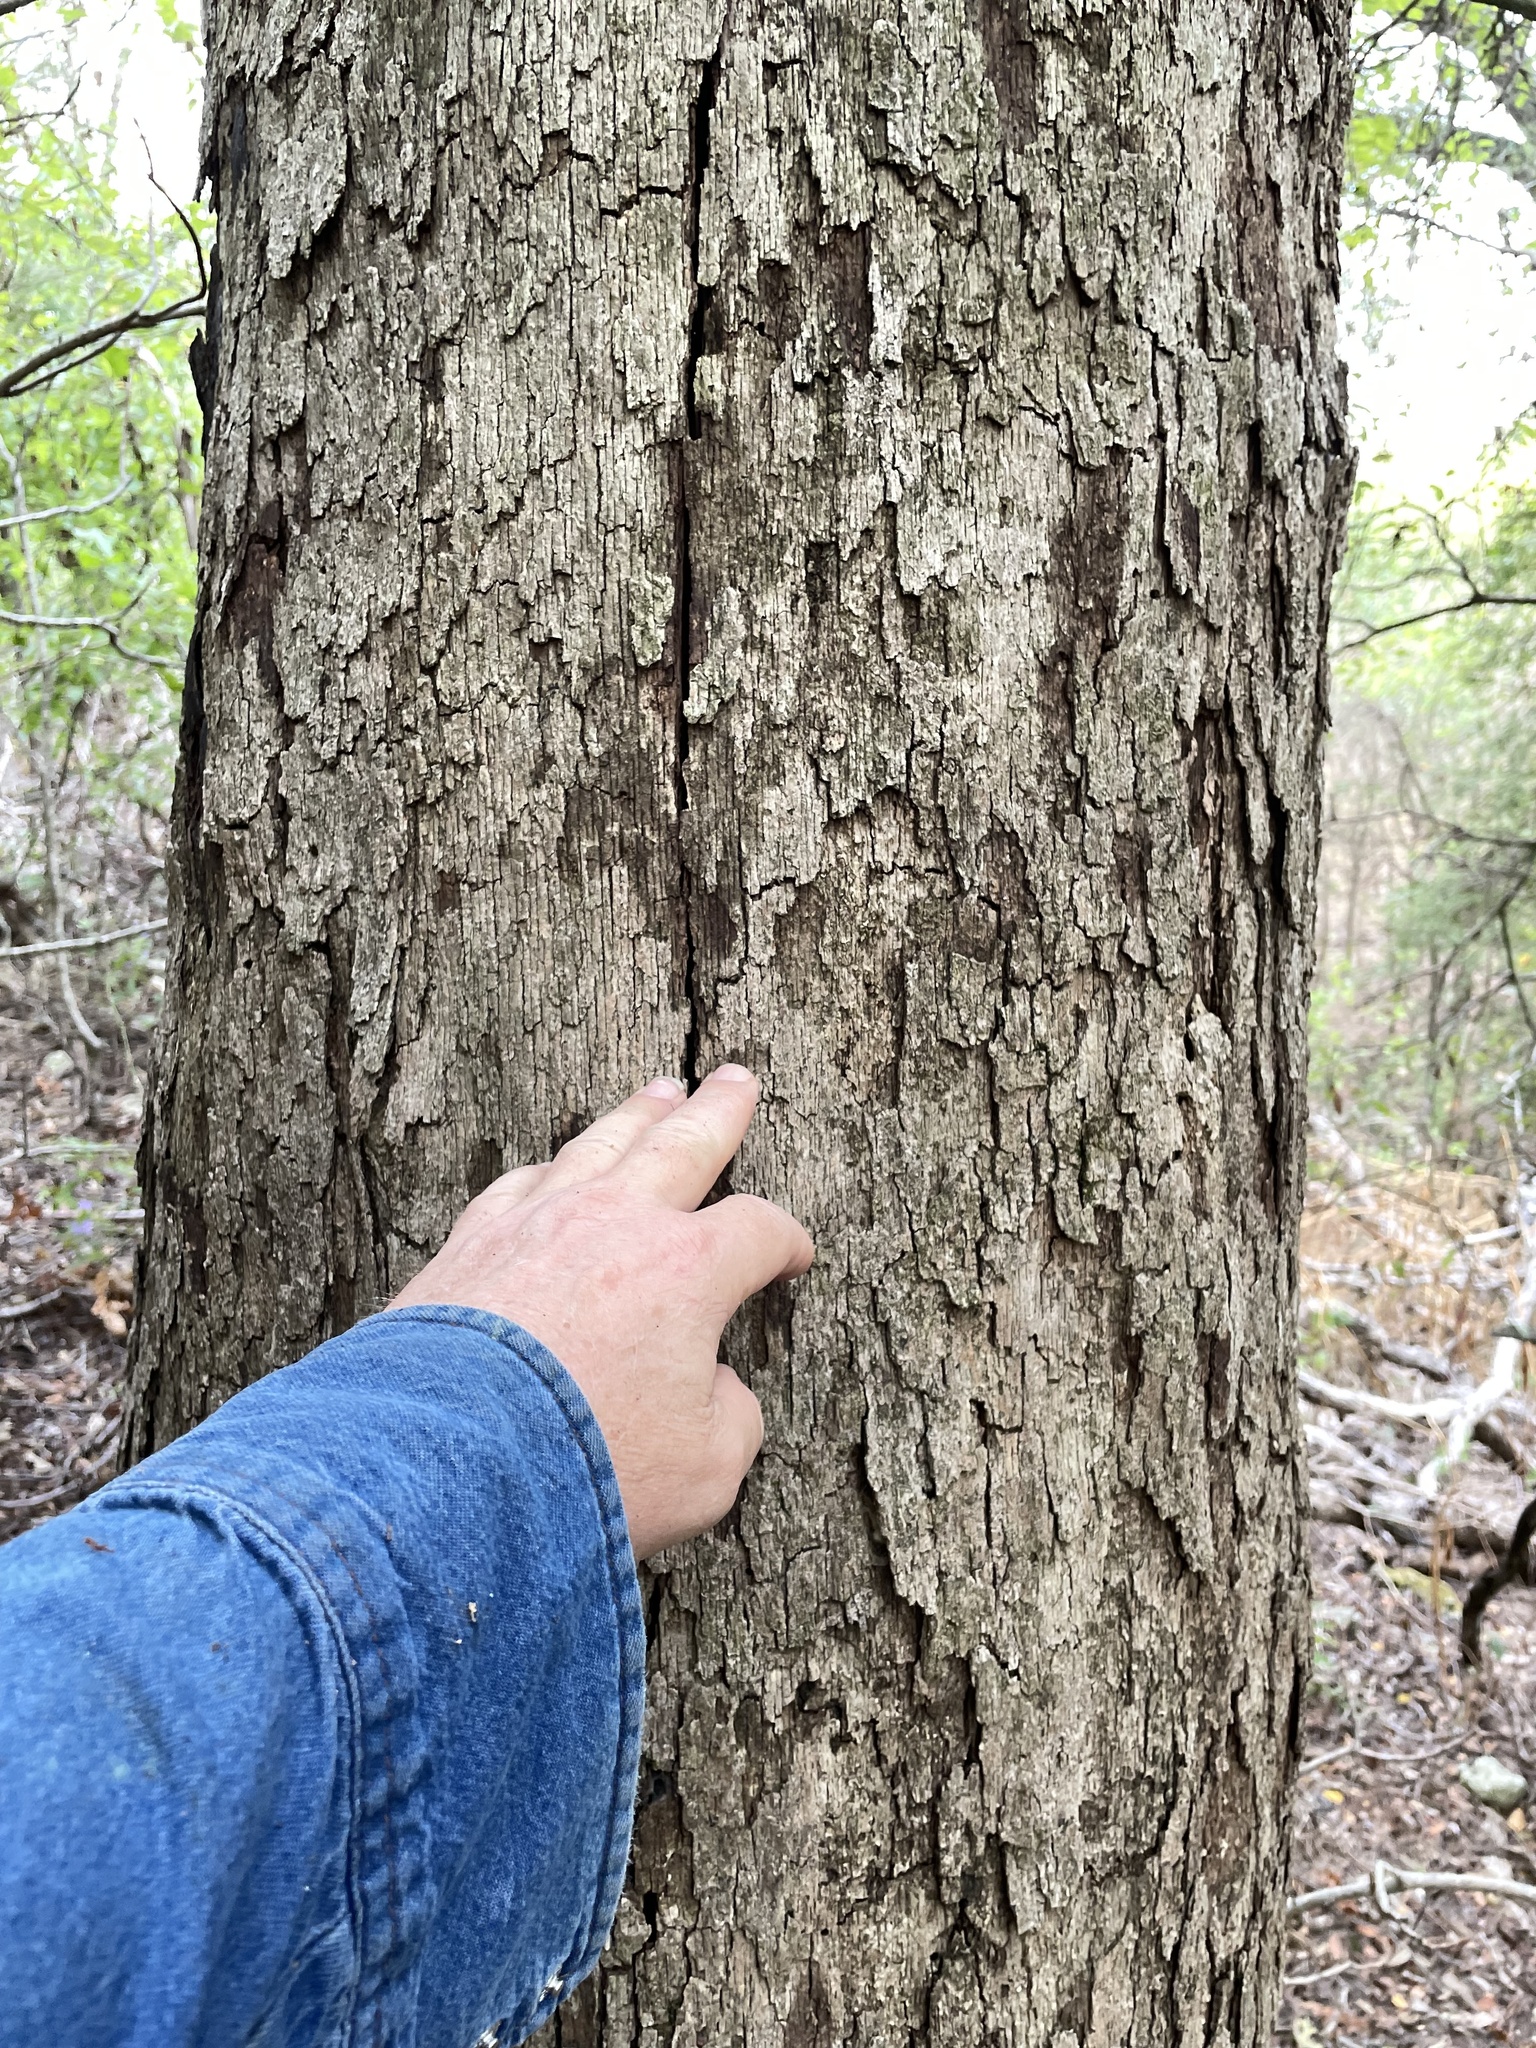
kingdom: Plantae
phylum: Tracheophyta
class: Magnoliopsida
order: Fagales
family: Fagaceae
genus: Quercus
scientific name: Quercus sinuata
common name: Durand oak
